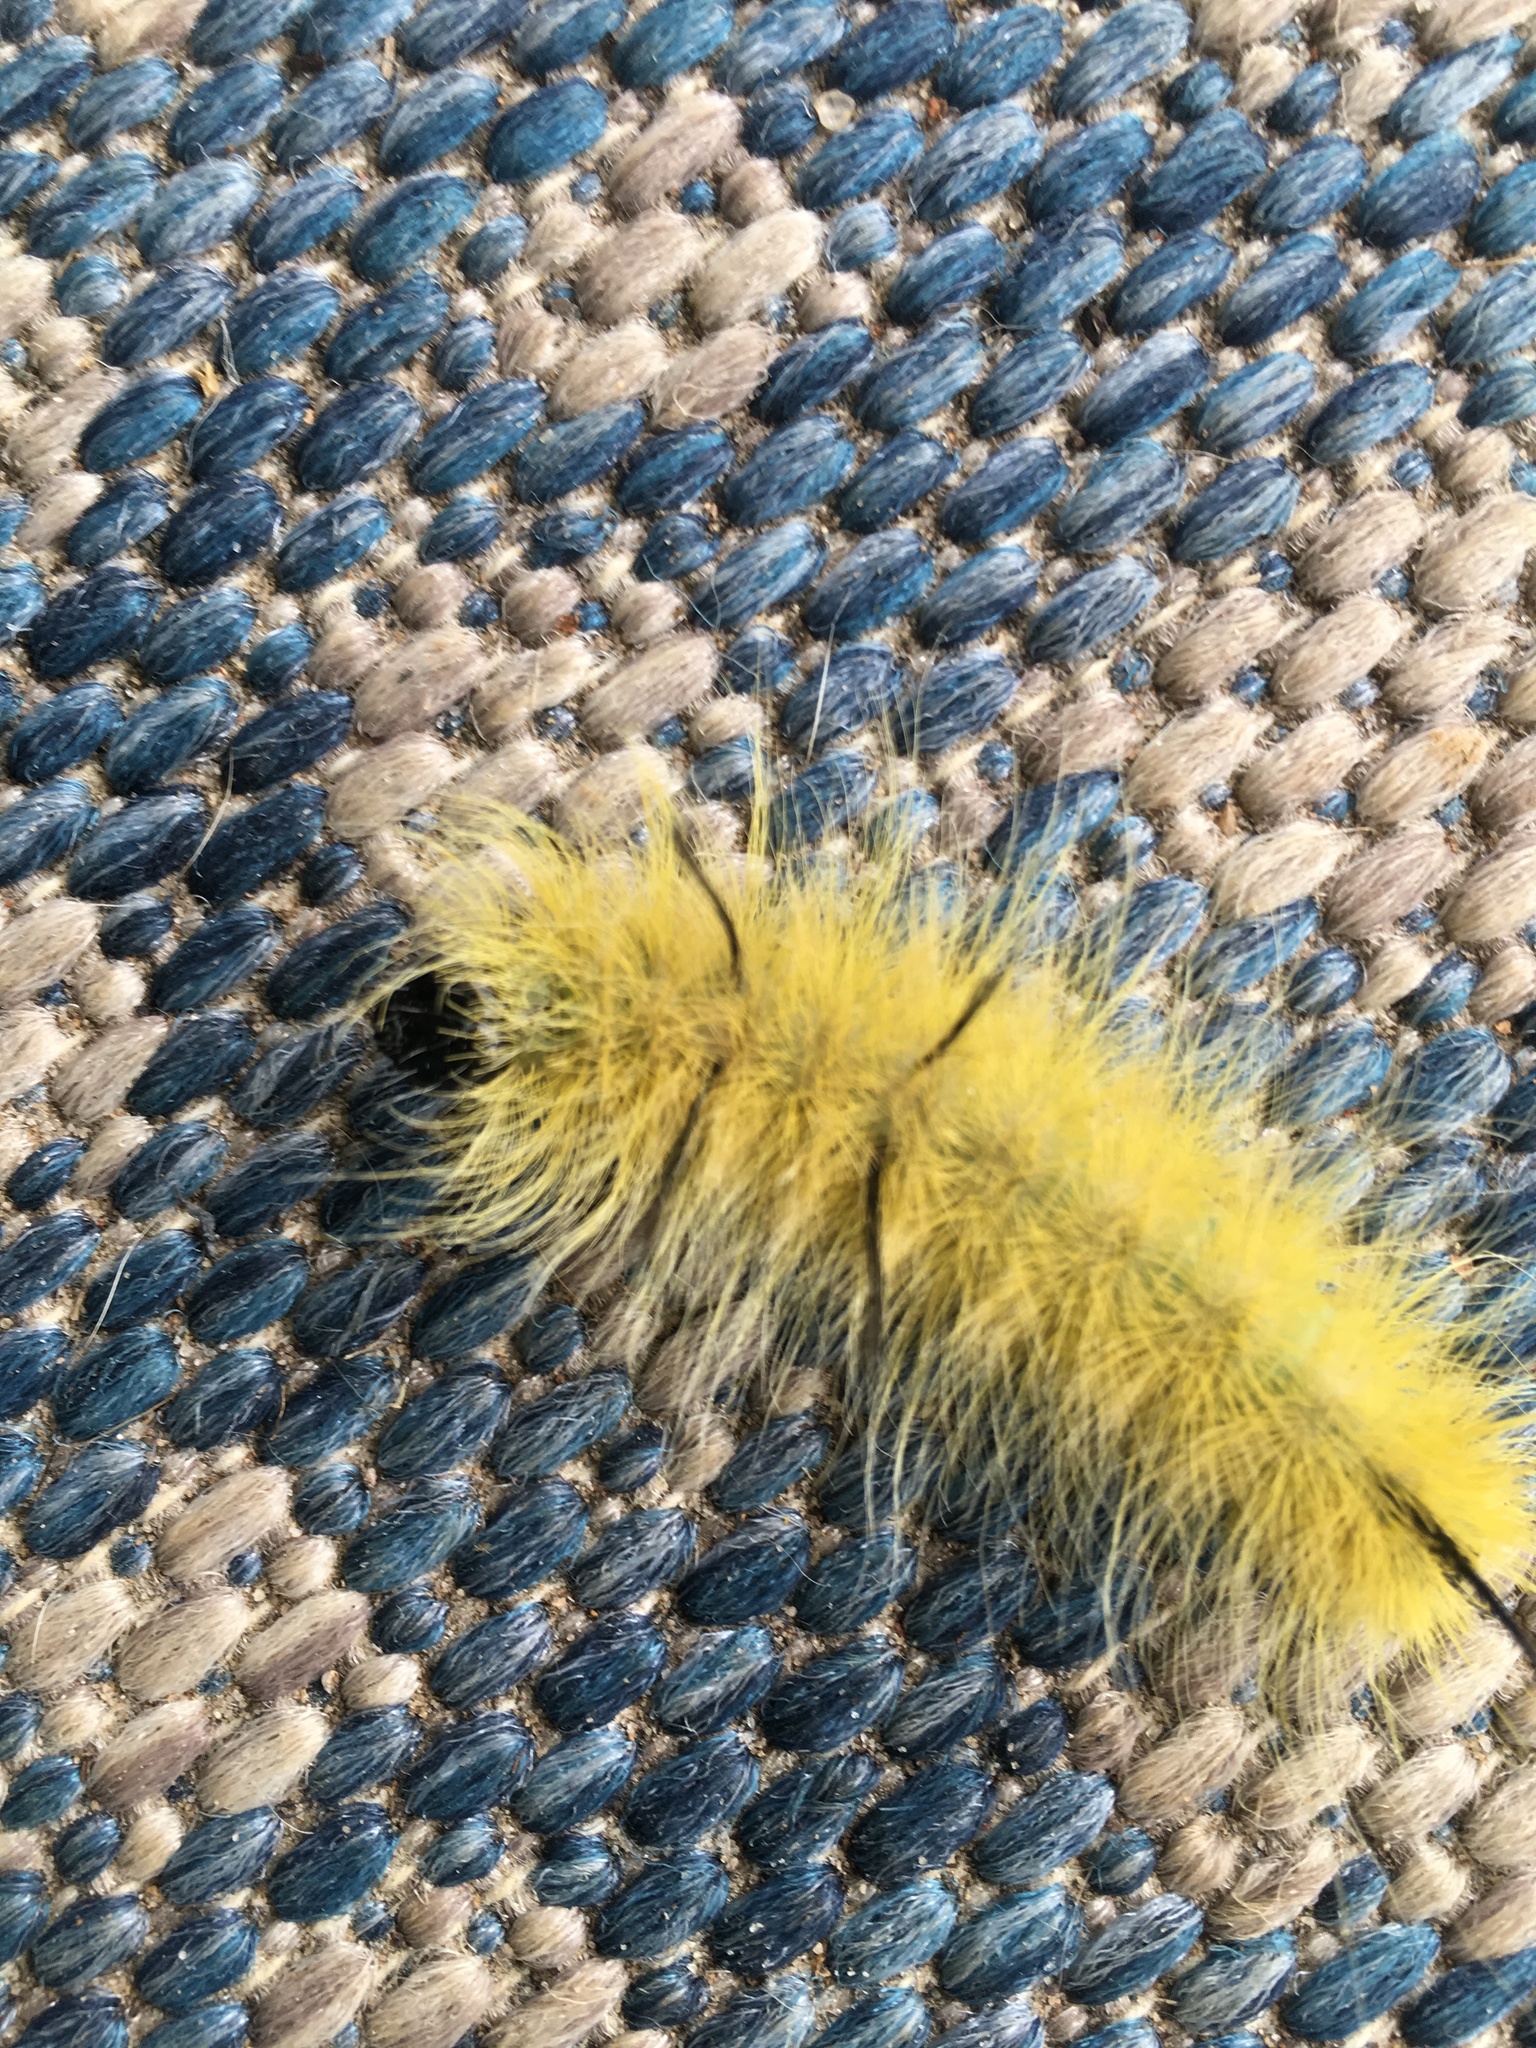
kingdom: Animalia
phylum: Arthropoda
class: Insecta
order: Lepidoptera
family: Noctuidae
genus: Acronicta
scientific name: Acronicta americana
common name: American dagger
